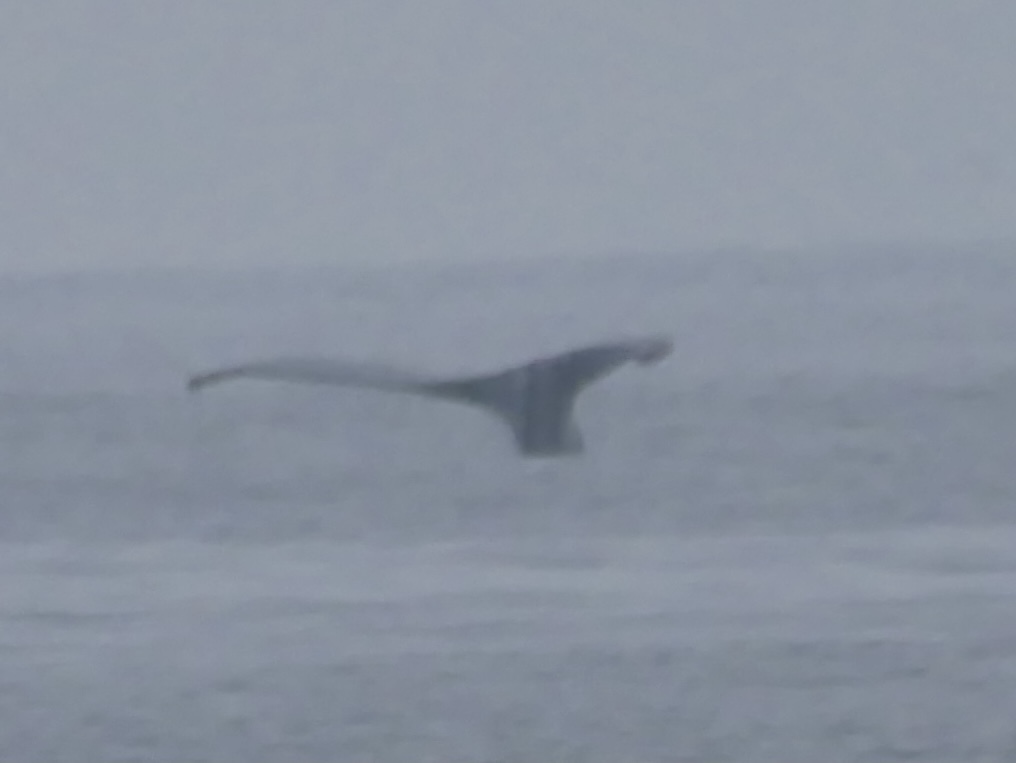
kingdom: Animalia
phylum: Chordata
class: Mammalia
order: Cetacea
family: Balaenopteridae
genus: Megaptera
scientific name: Megaptera novaeangliae
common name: Humpback whale
